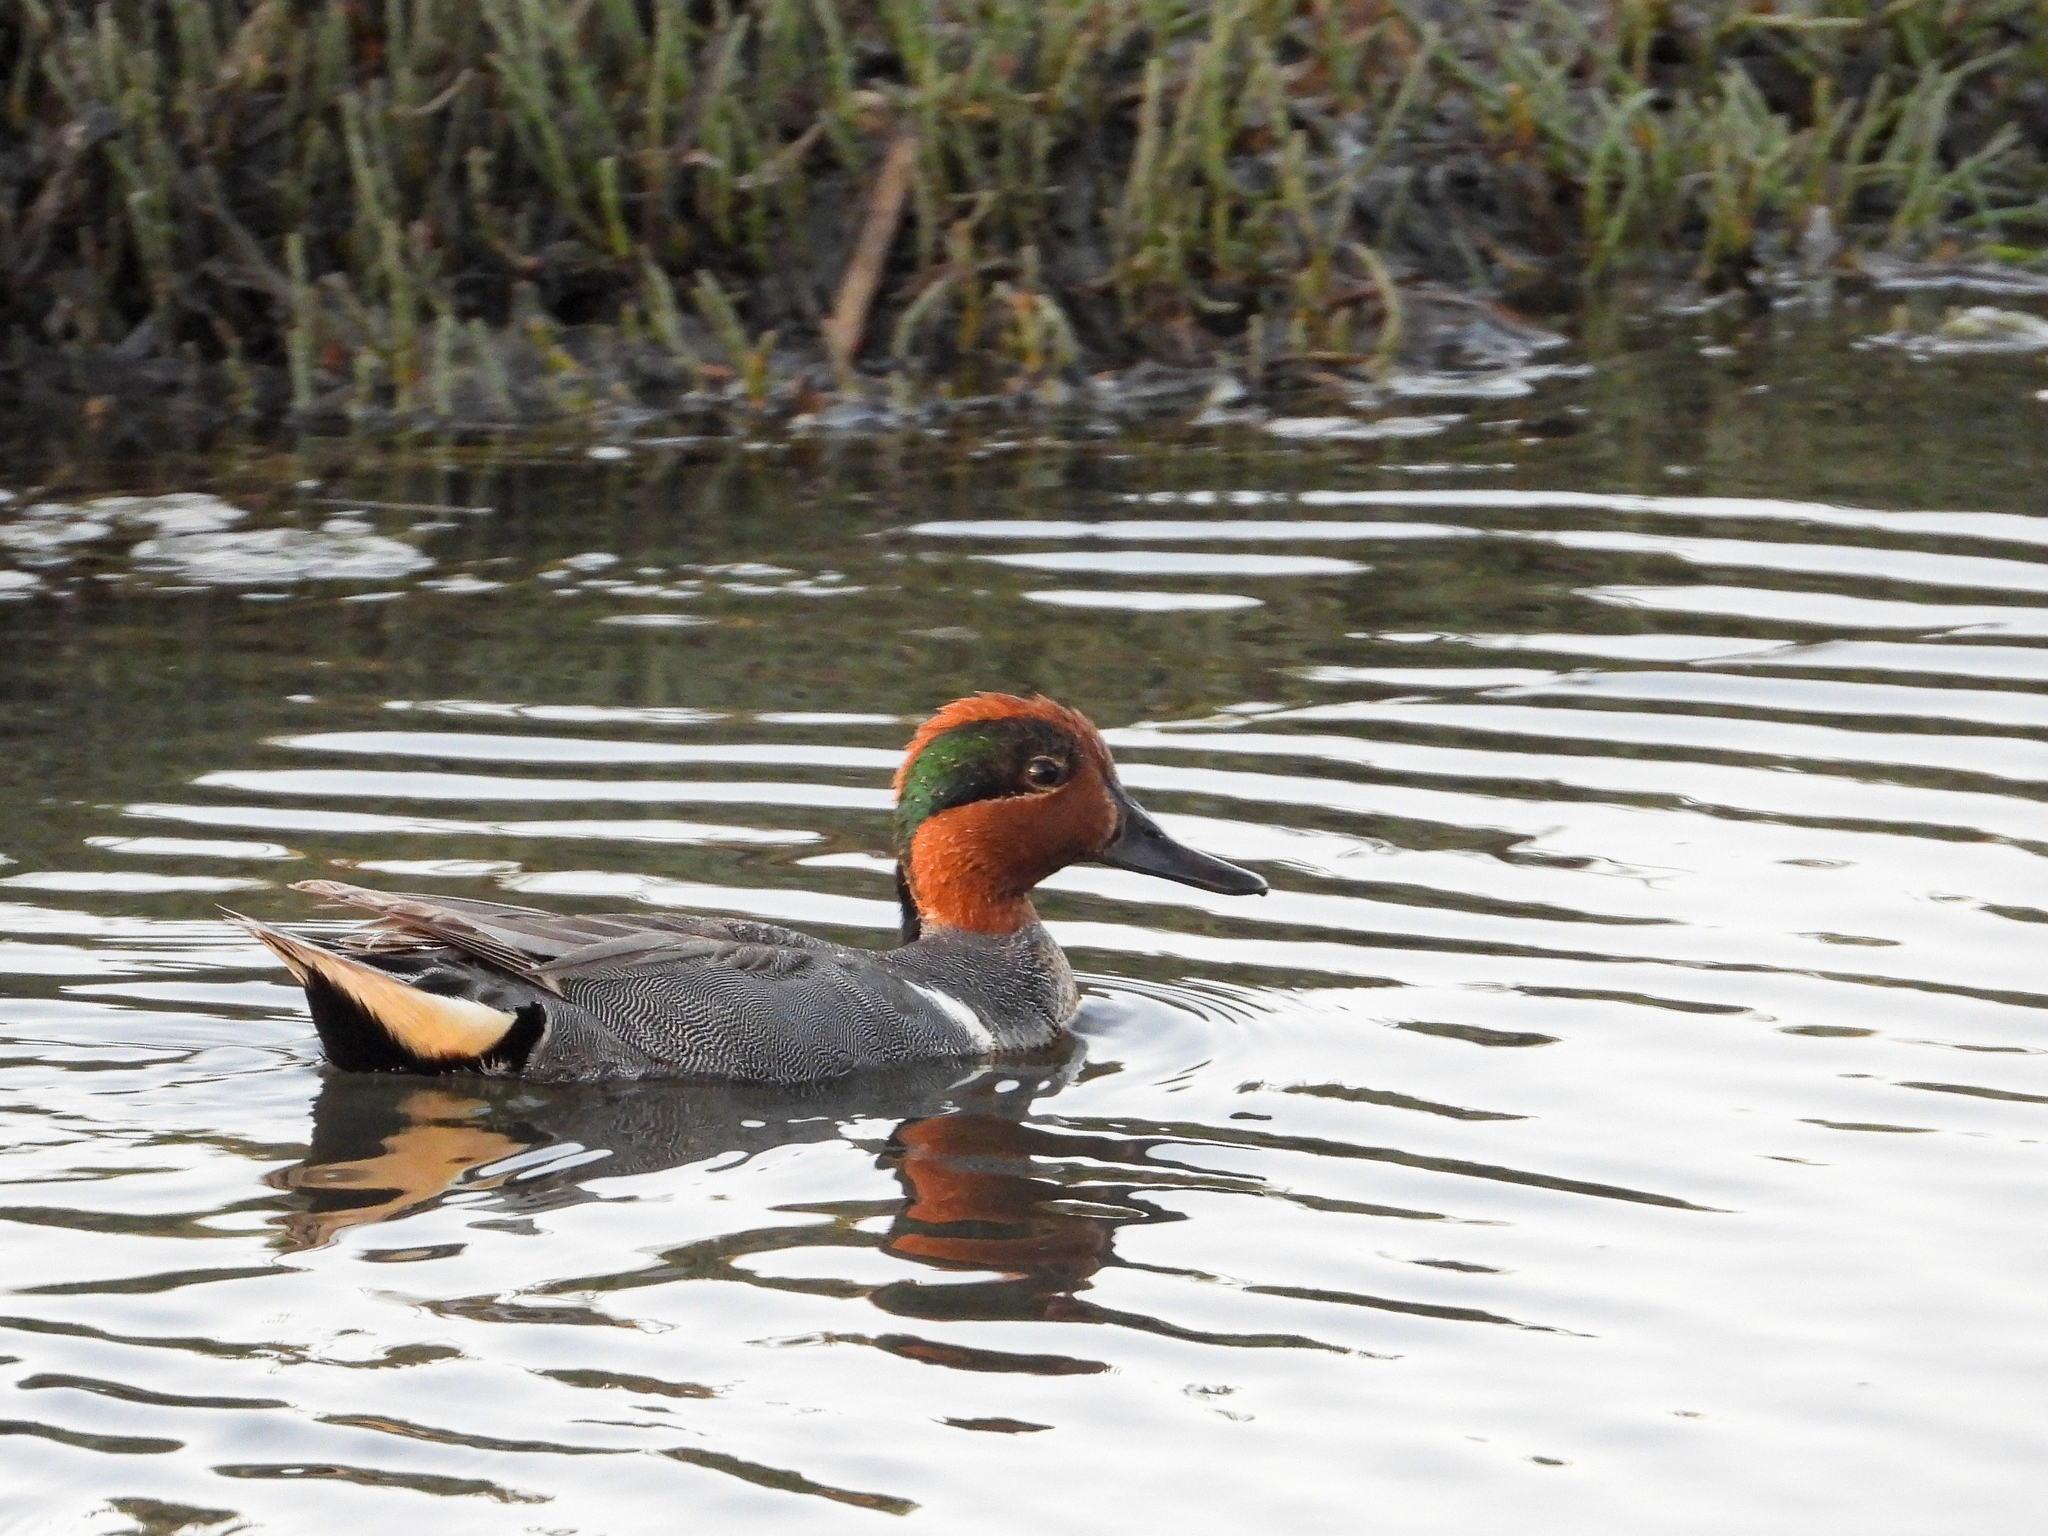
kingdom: Animalia
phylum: Chordata
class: Aves
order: Anseriformes
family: Anatidae
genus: Anas
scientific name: Anas crecca
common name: Eurasian teal
